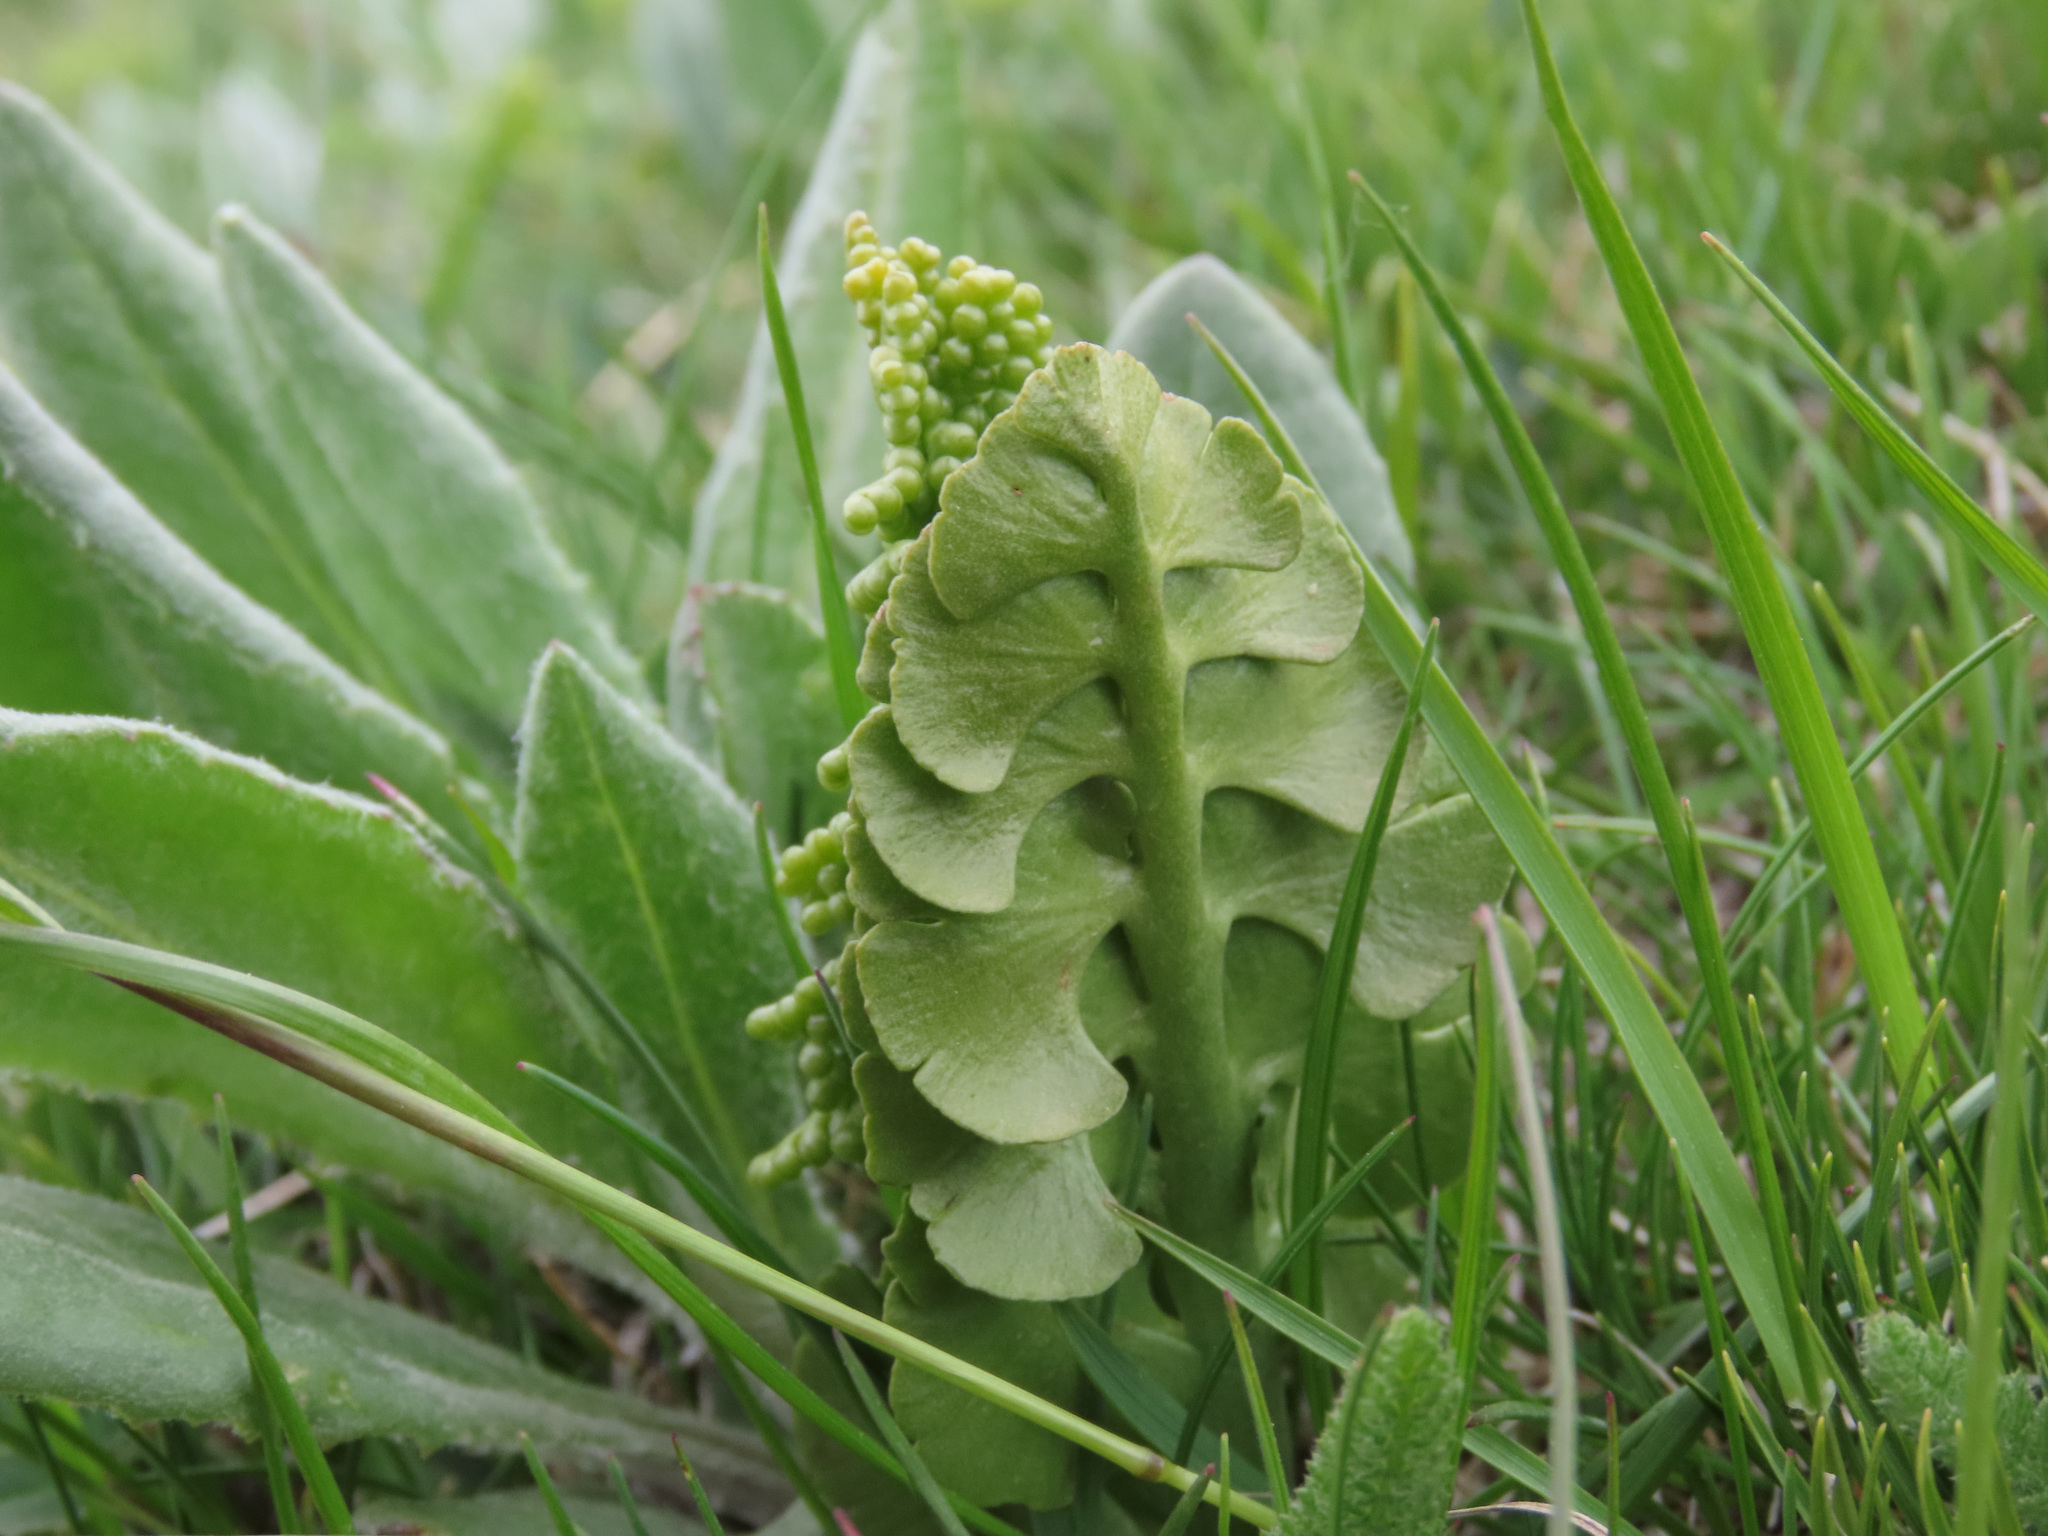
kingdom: Plantae
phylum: Tracheophyta
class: Polypodiopsida
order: Ophioglossales
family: Ophioglossaceae
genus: Botrychium
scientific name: Botrychium lunaria
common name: Moonwort
